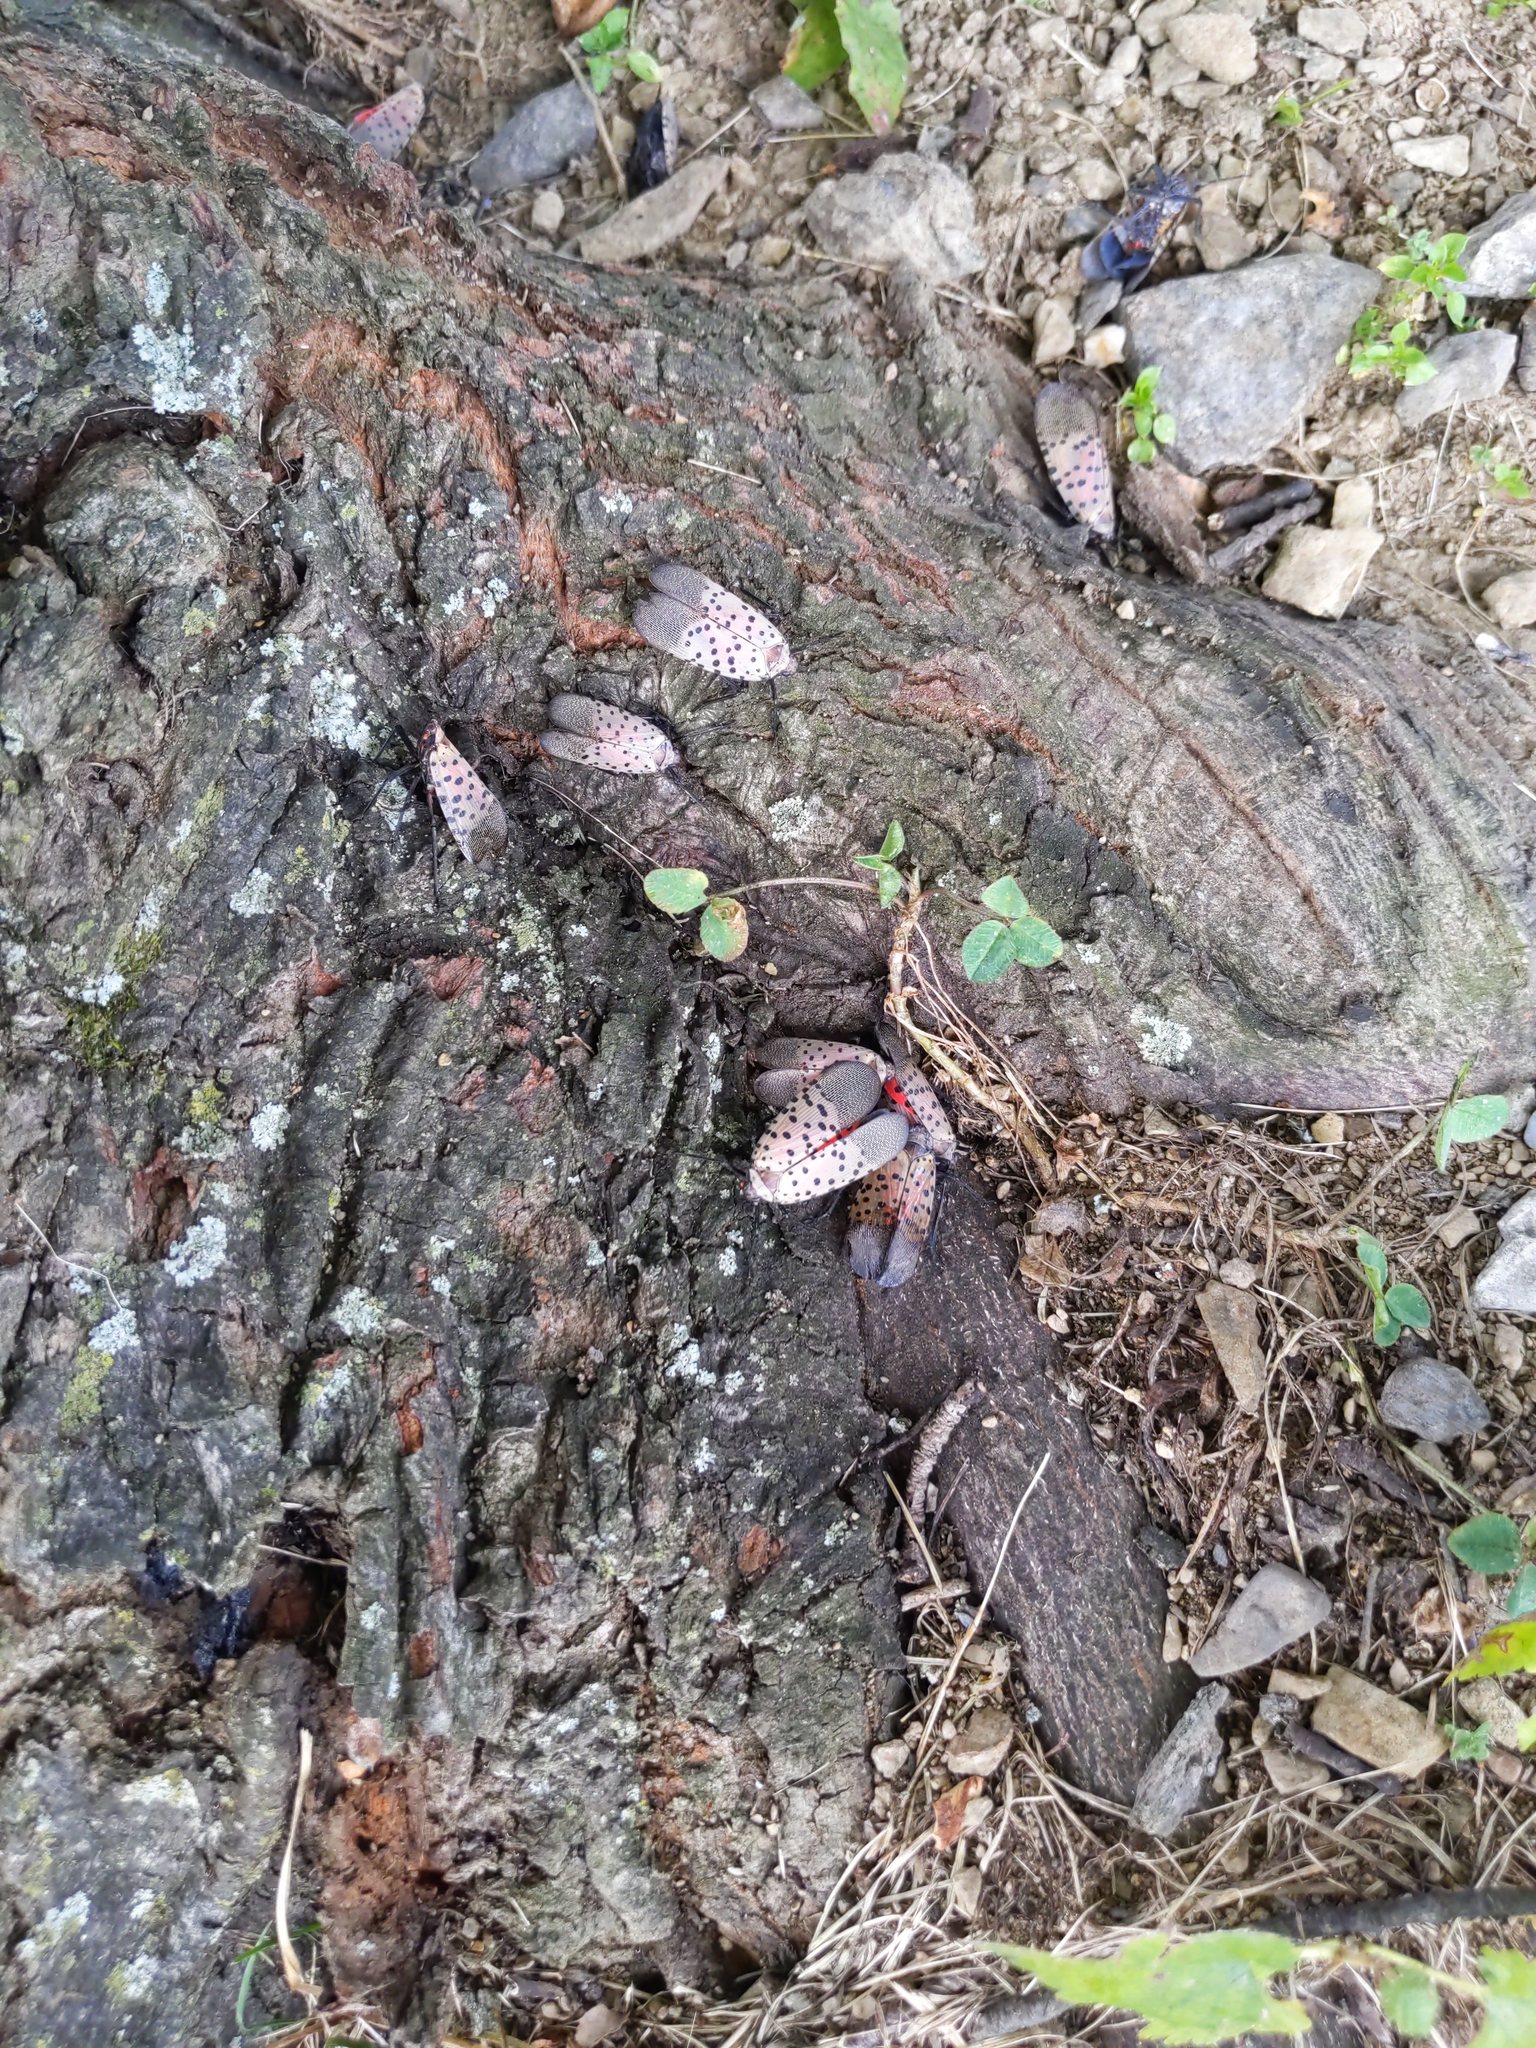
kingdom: Animalia
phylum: Arthropoda
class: Insecta
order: Hemiptera
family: Fulgoridae
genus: Lycorma
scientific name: Lycorma delicatula
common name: Spotted lanternfly
